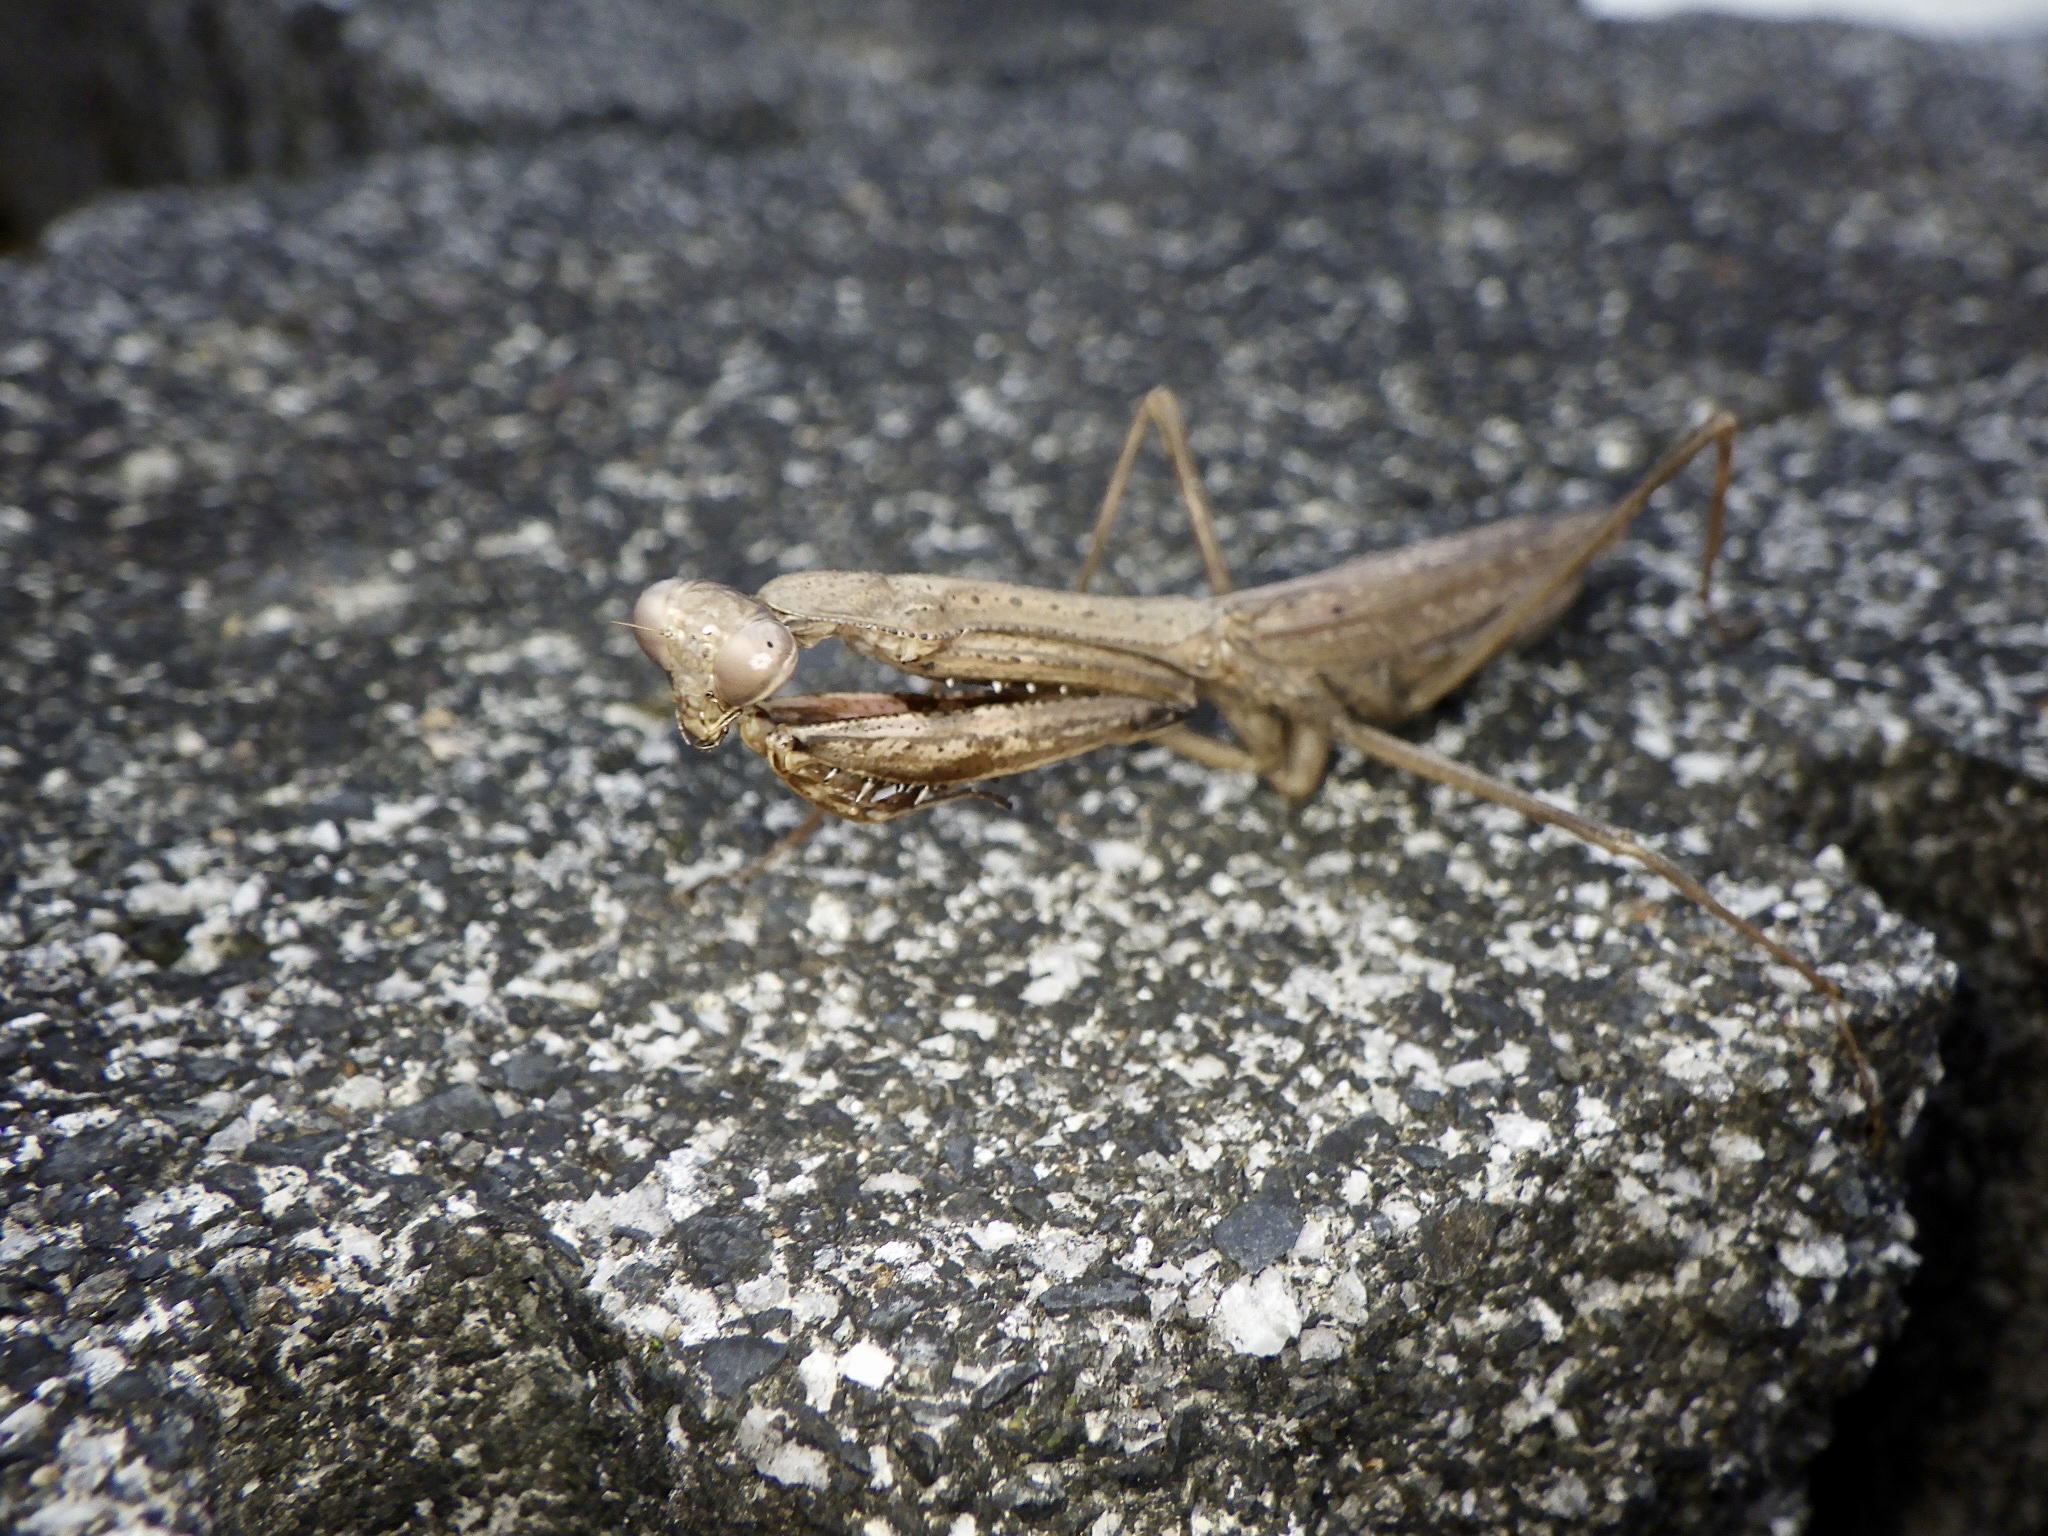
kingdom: Animalia
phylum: Arthropoda
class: Insecta
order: Mantodea
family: Mantidae
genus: Statilia
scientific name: Statilia maculata
